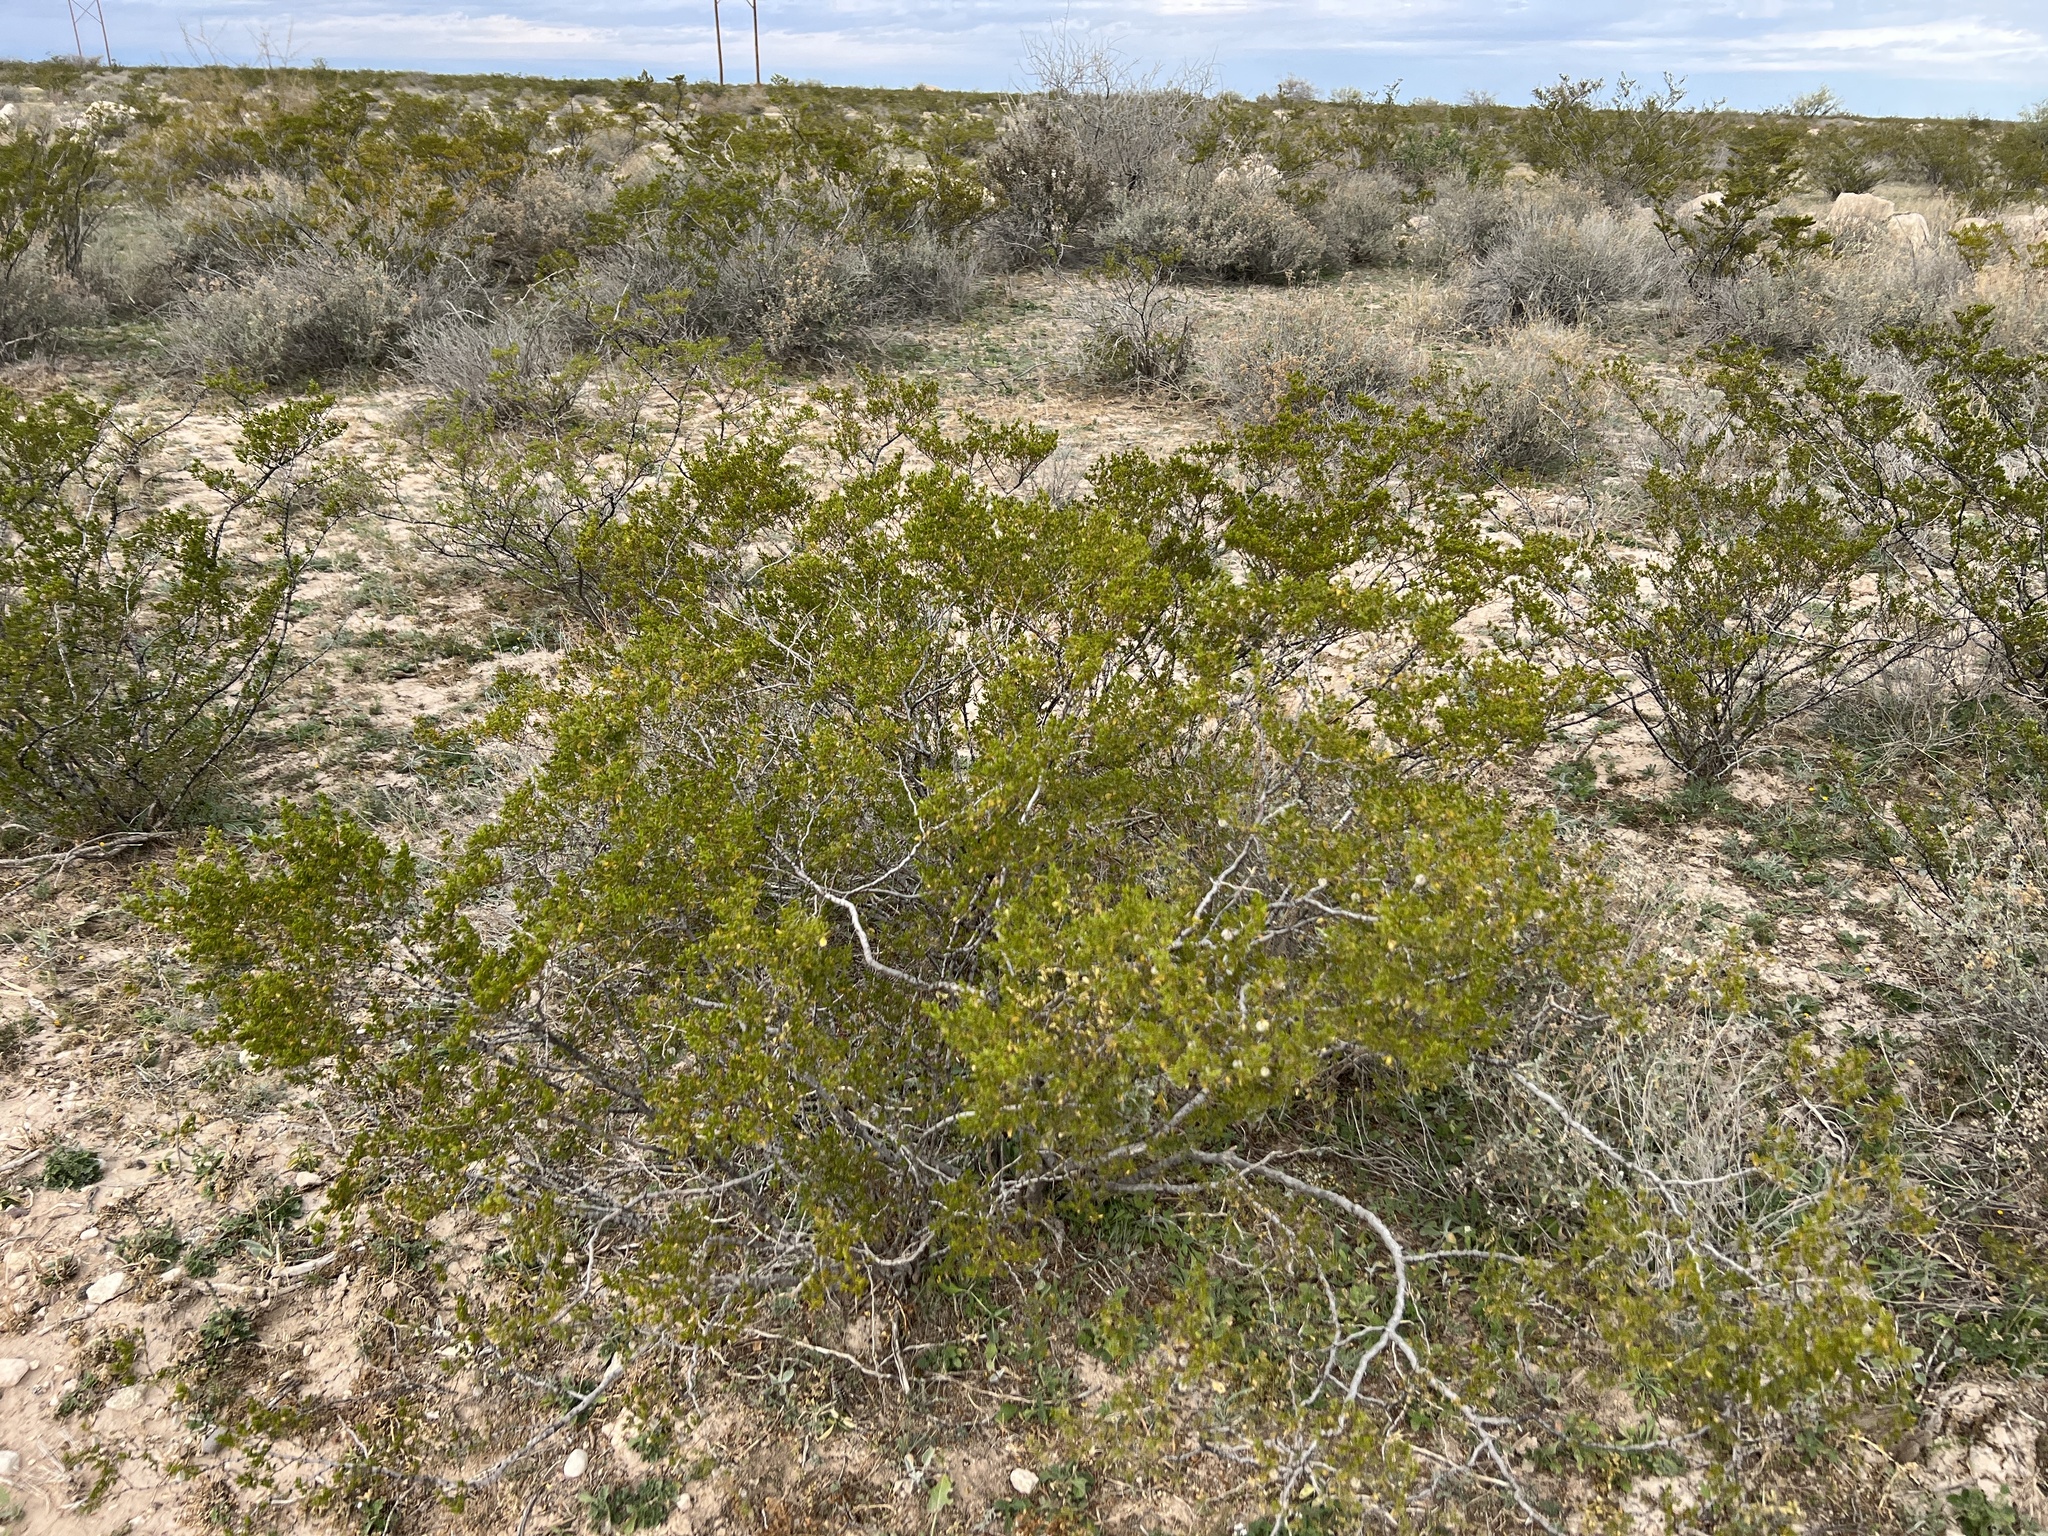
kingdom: Plantae
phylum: Tracheophyta
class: Magnoliopsida
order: Zygophyllales
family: Zygophyllaceae
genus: Larrea
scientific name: Larrea tridentata
